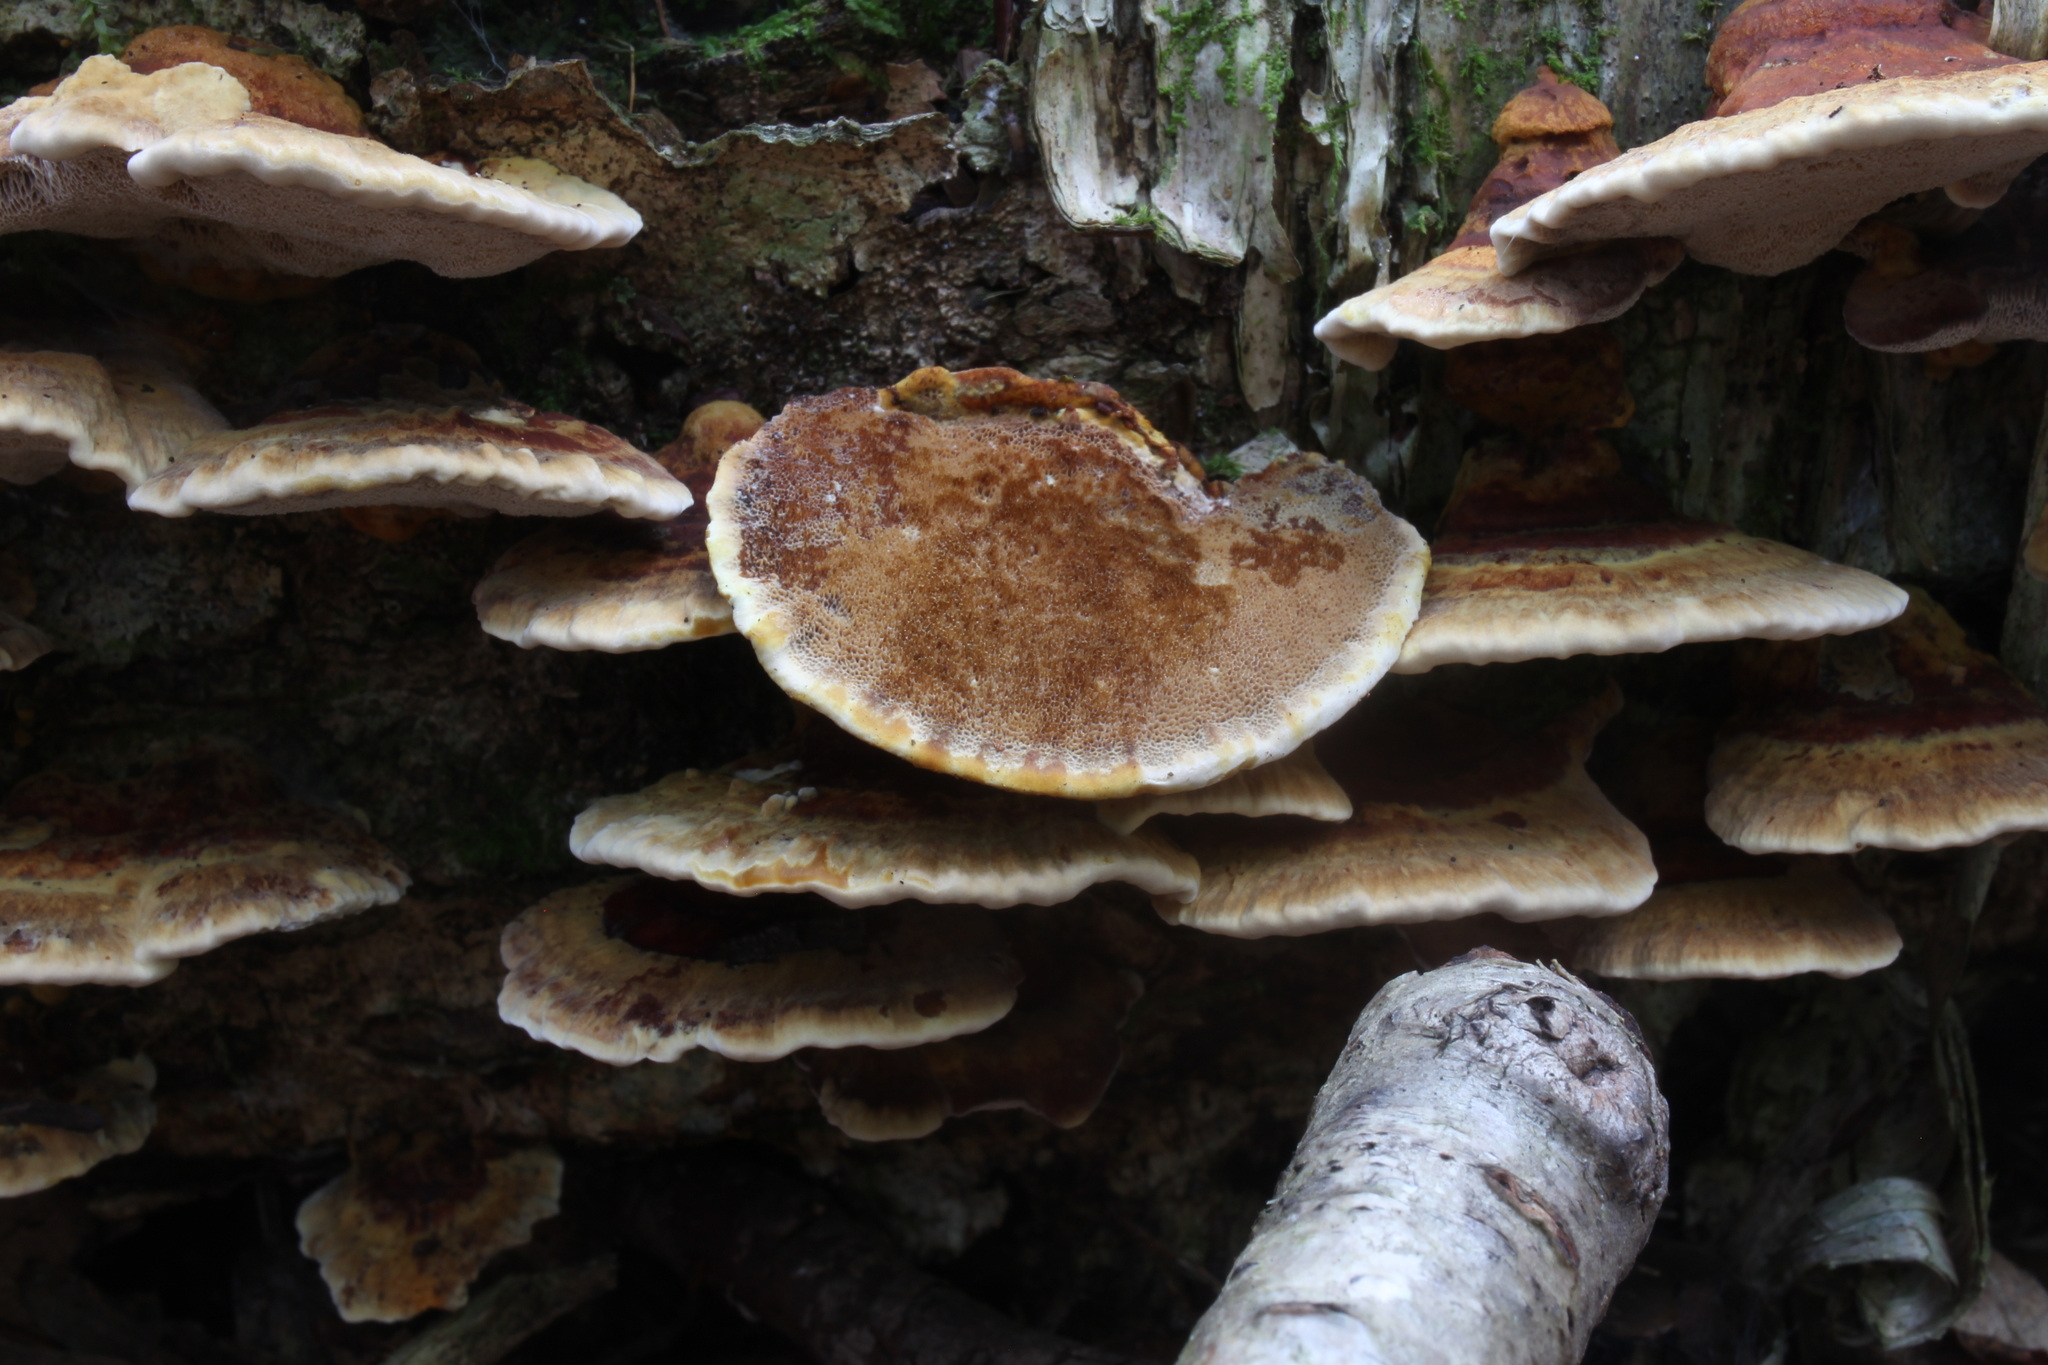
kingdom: Fungi
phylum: Basidiomycota
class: Agaricomycetes
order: Hymenochaetales
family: Hymenochaetaceae
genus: Xanthoporia
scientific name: Xanthoporia radiata
